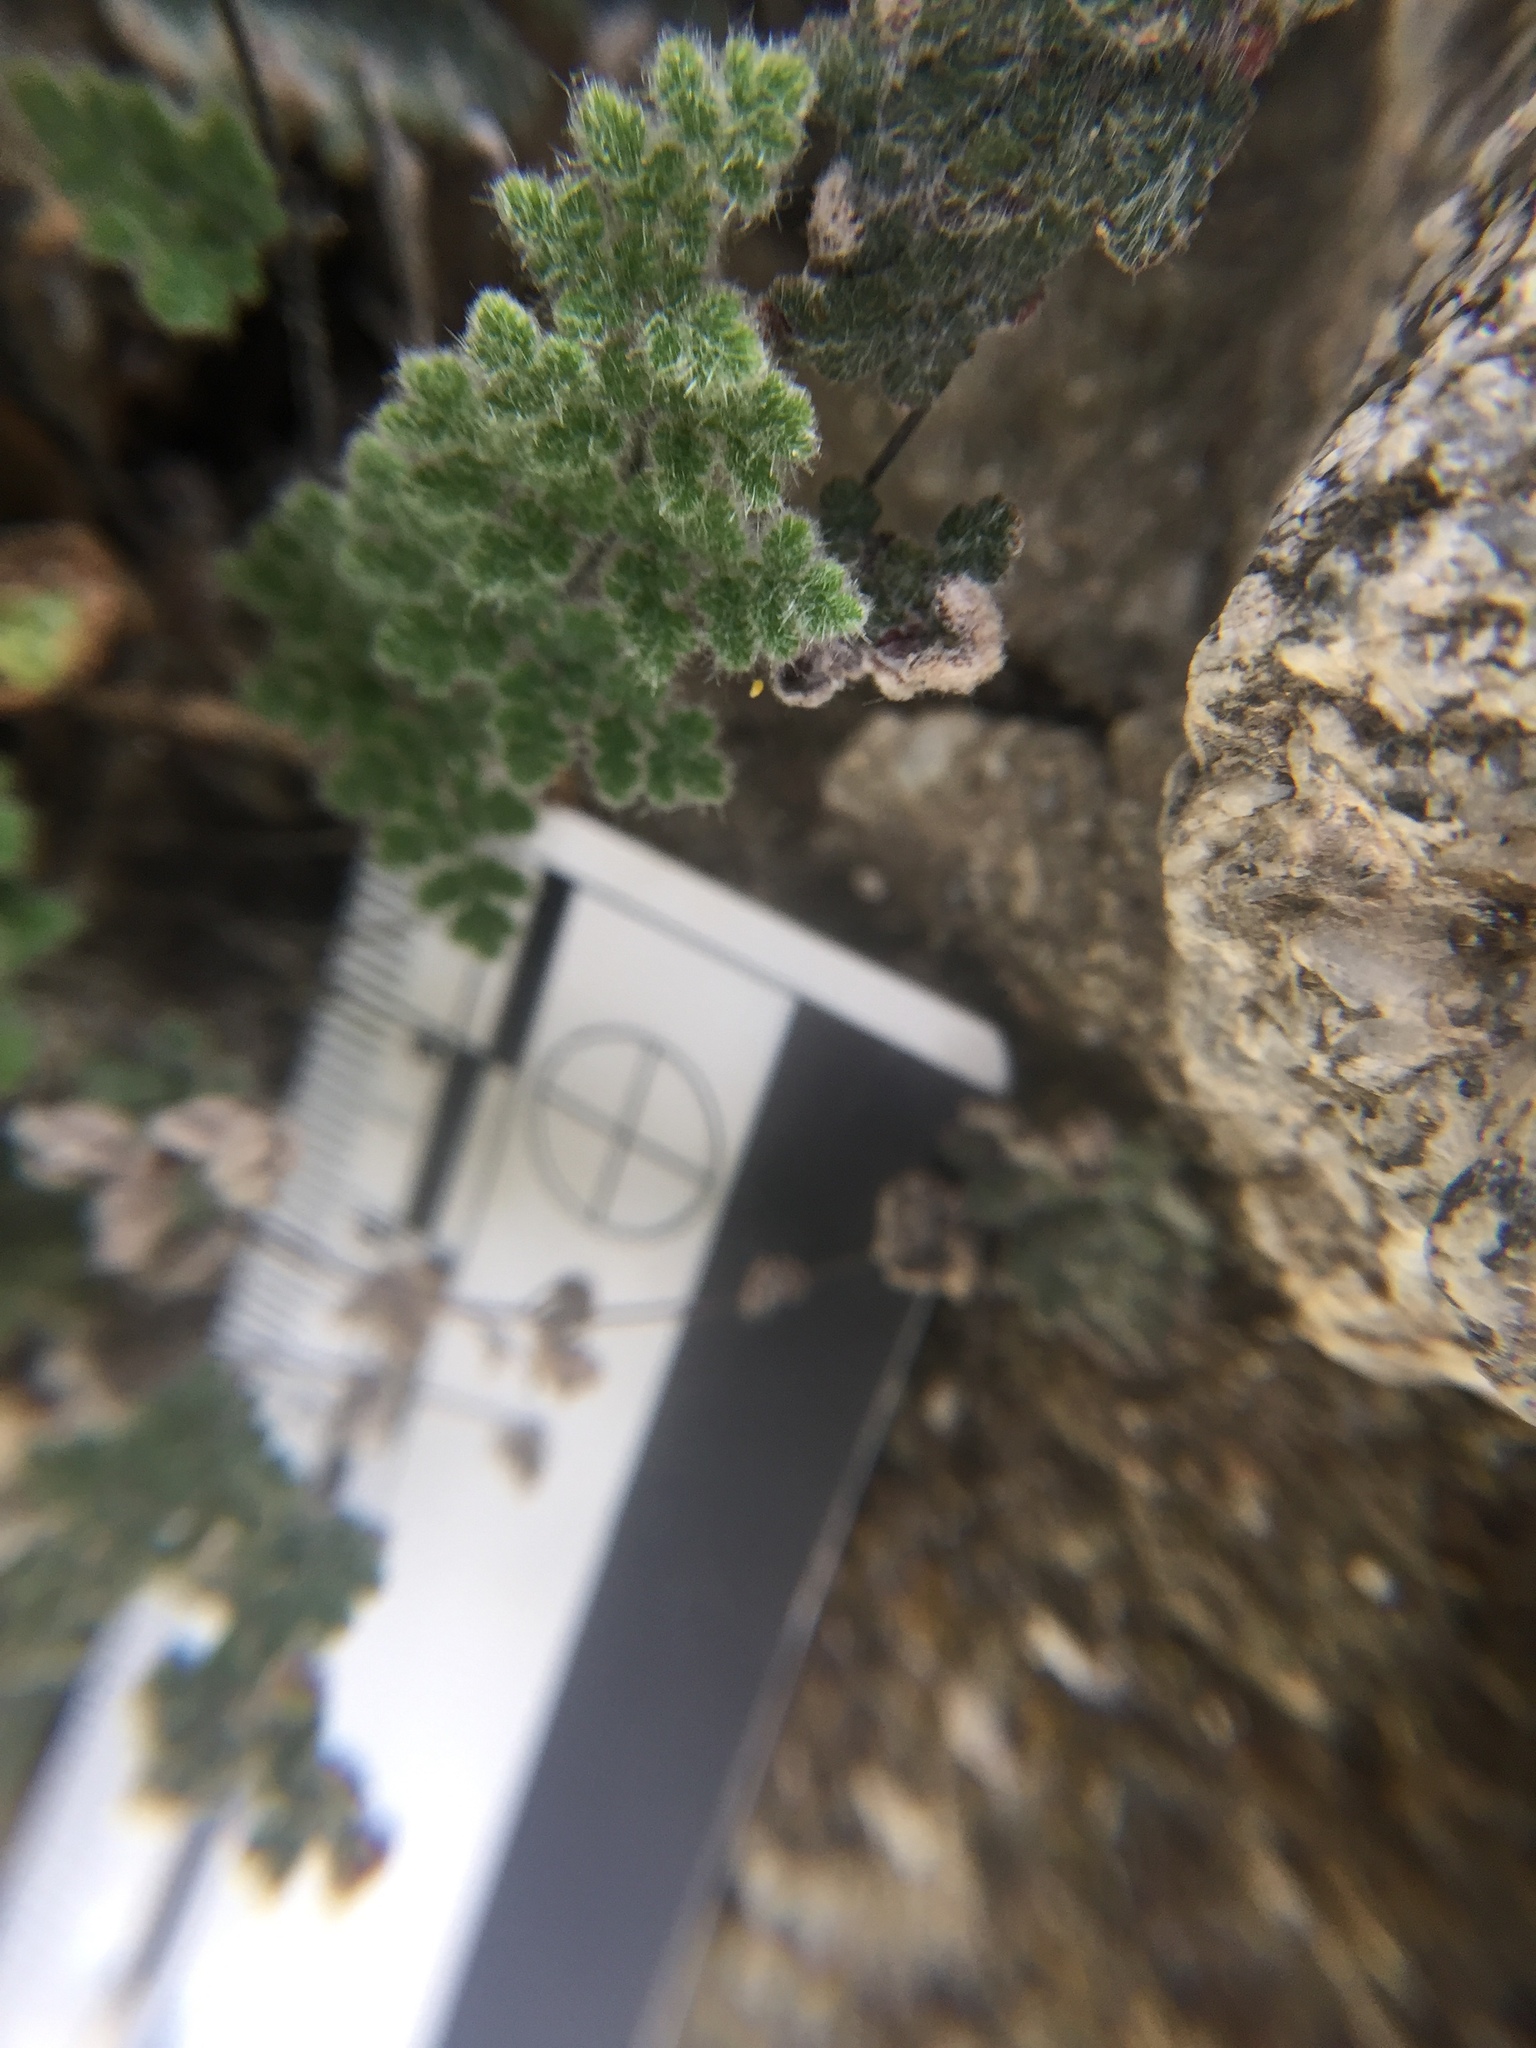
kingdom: Plantae
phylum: Tracheophyta
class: Polypodiopsida
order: Polypodiales
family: Pteridaceae
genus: Myriopteris
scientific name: Myriopteris parryi
